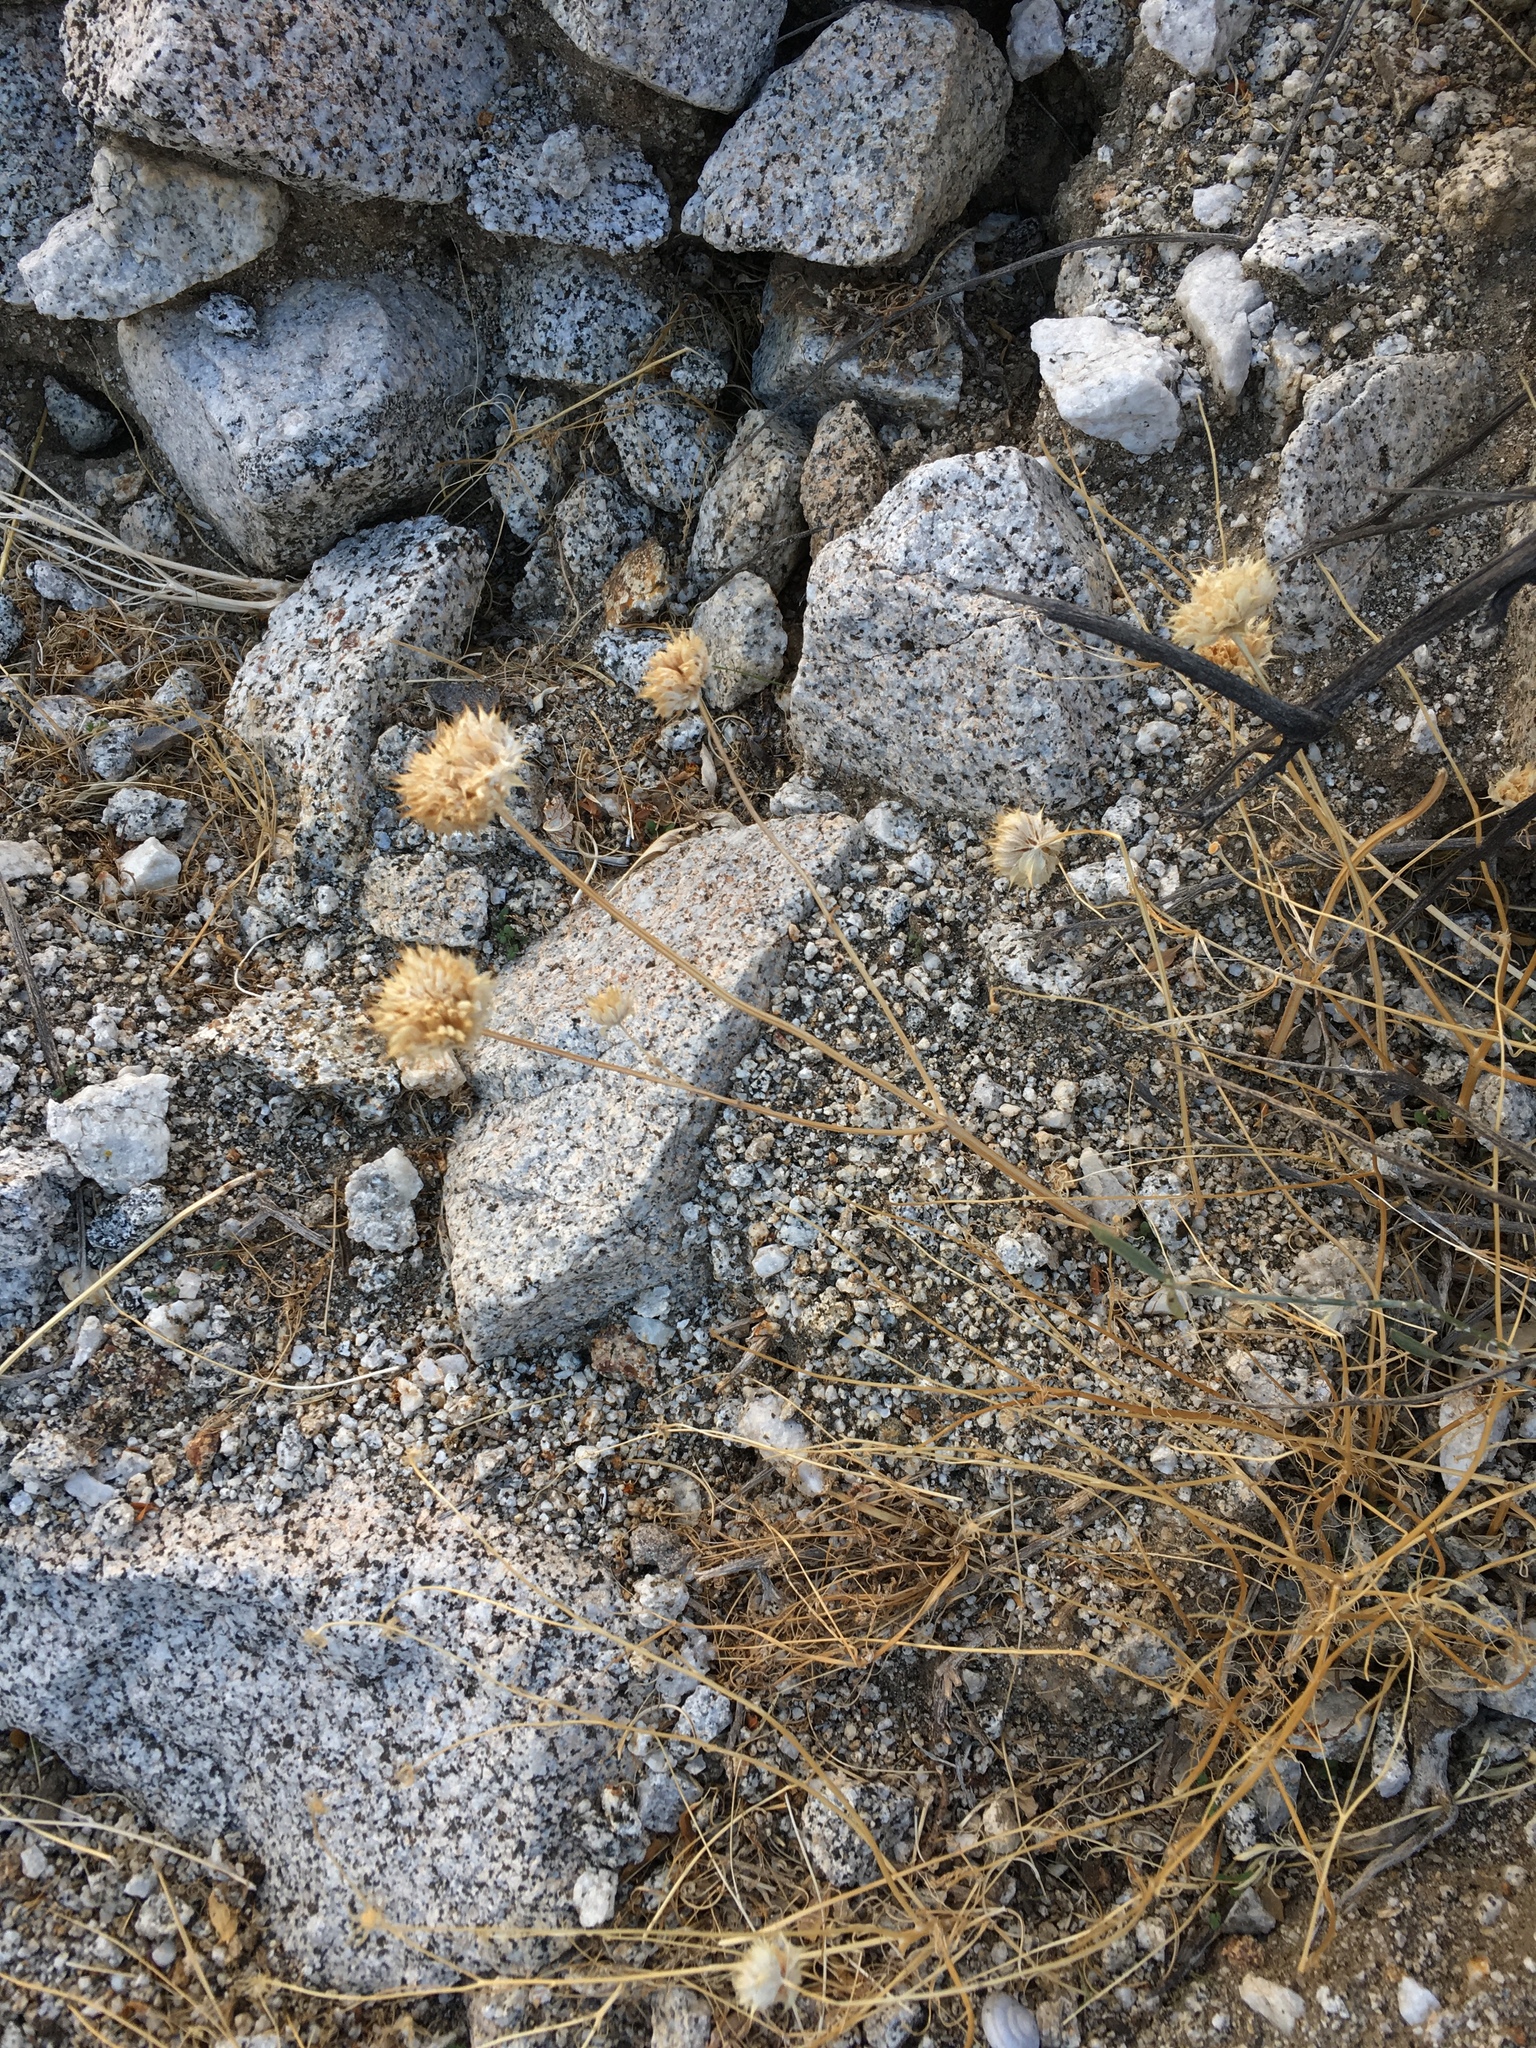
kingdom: Plantae
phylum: Tracheophyta
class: Magnoliopsida
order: Lamiales
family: Lamiaceae
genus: Salvia
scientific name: Salvia columbariae
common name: Chia
